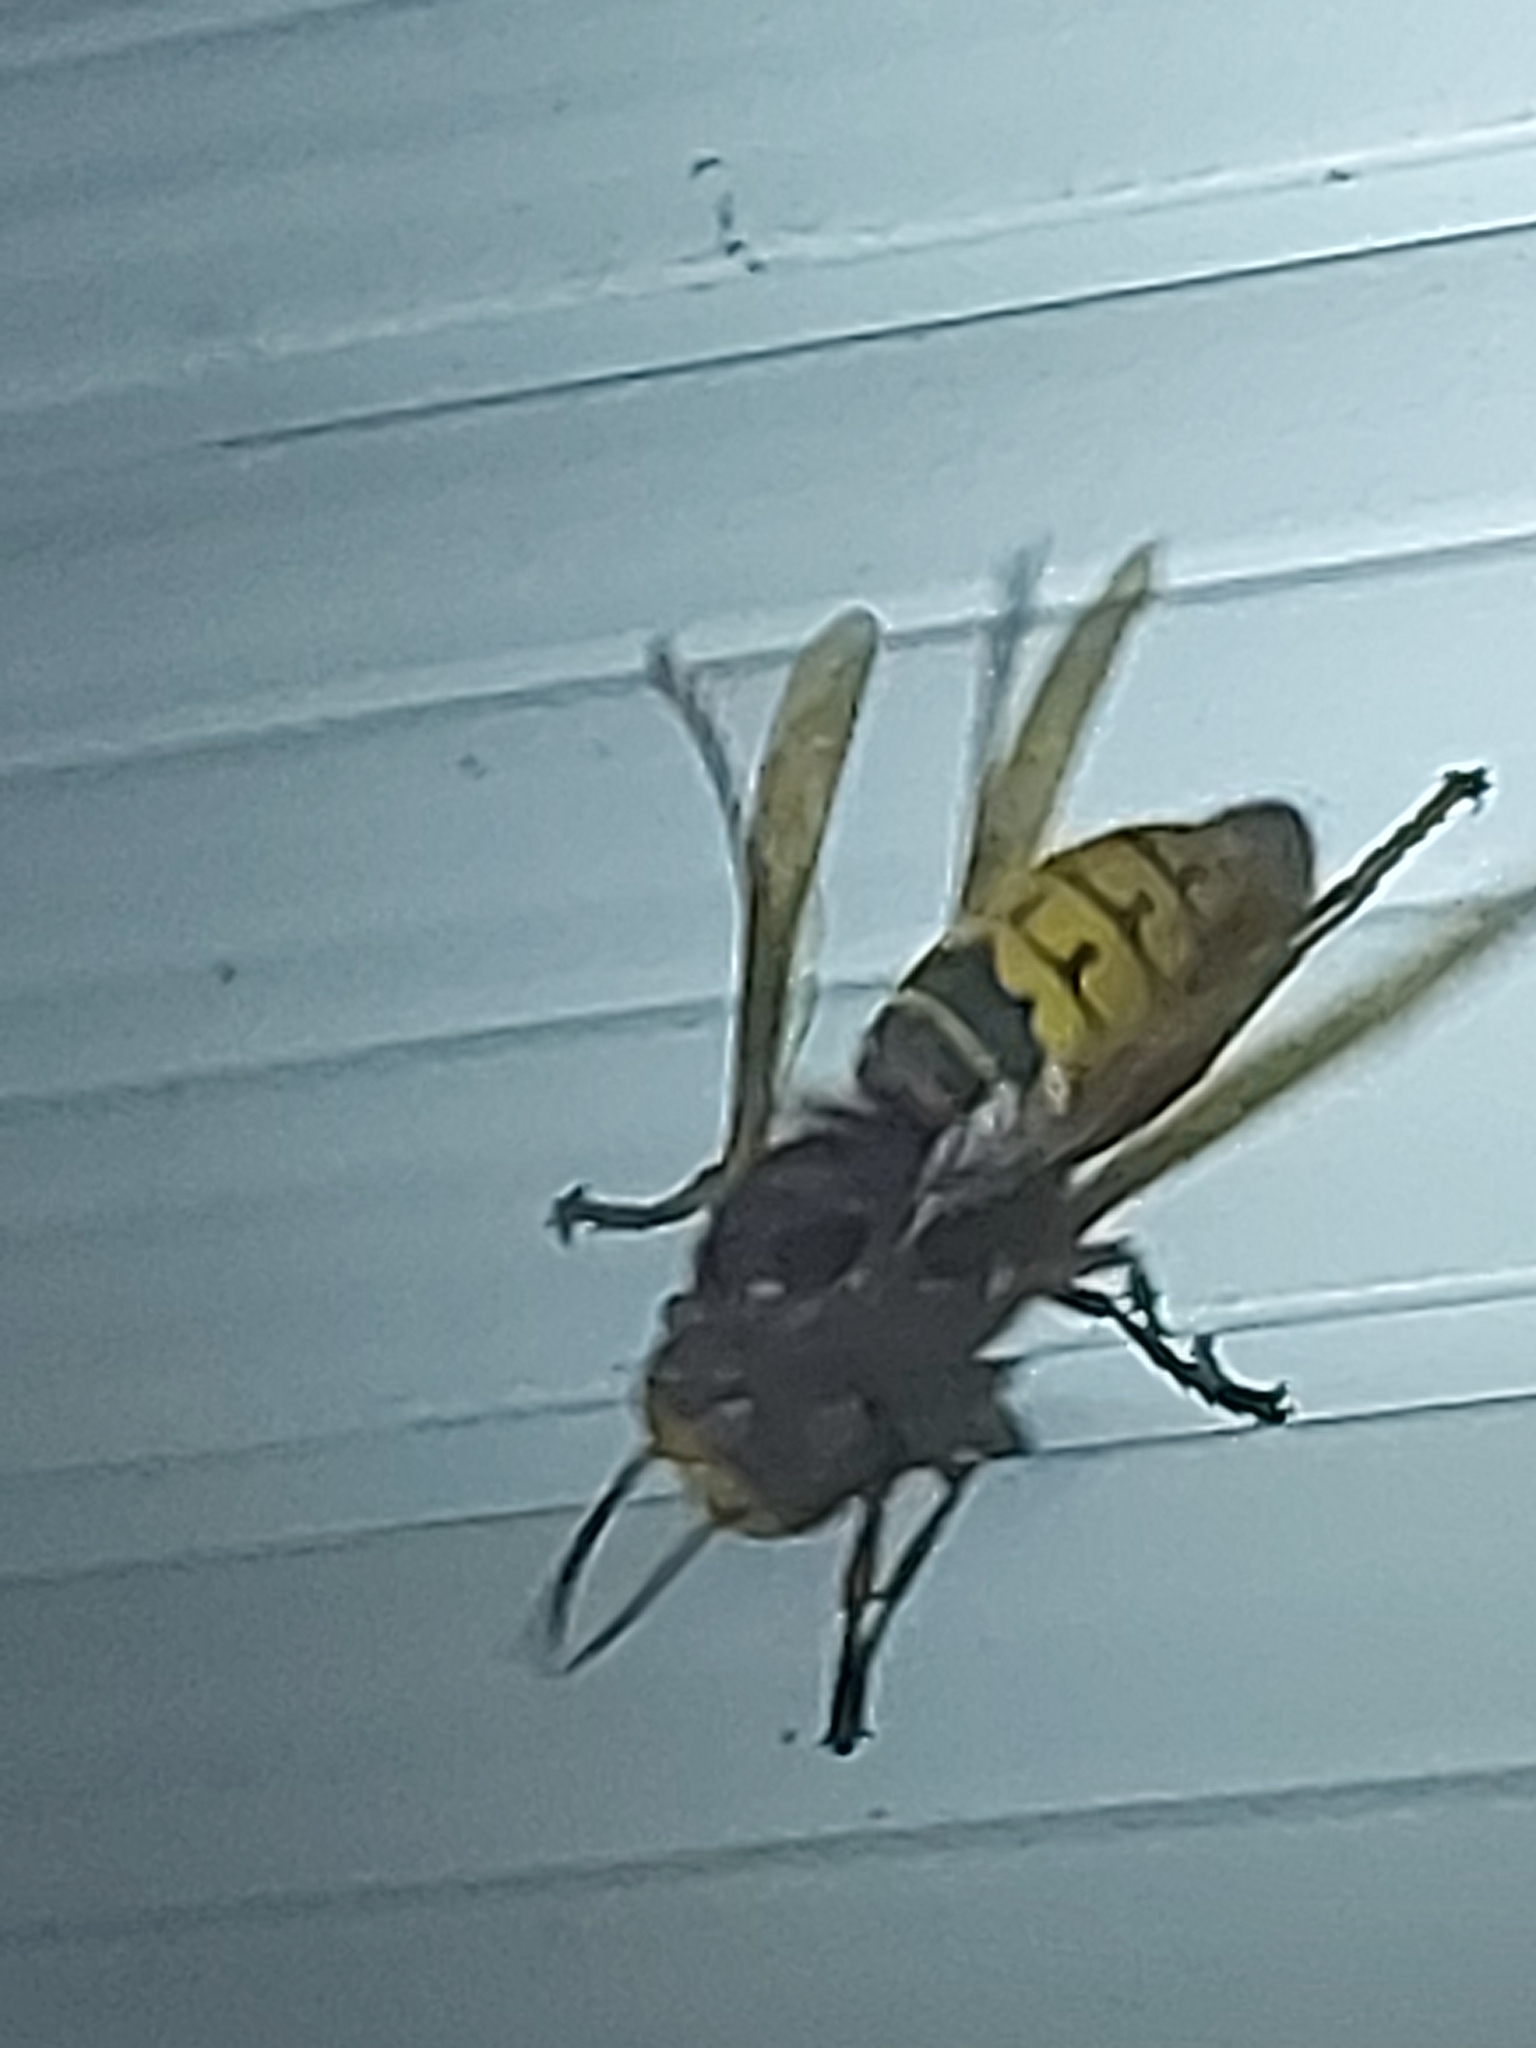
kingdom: Animalia
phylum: Arthropoda
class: Insecta
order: Hymenoptera
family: Vespidae
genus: Vespa
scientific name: Vespa crabro
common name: Hornet
